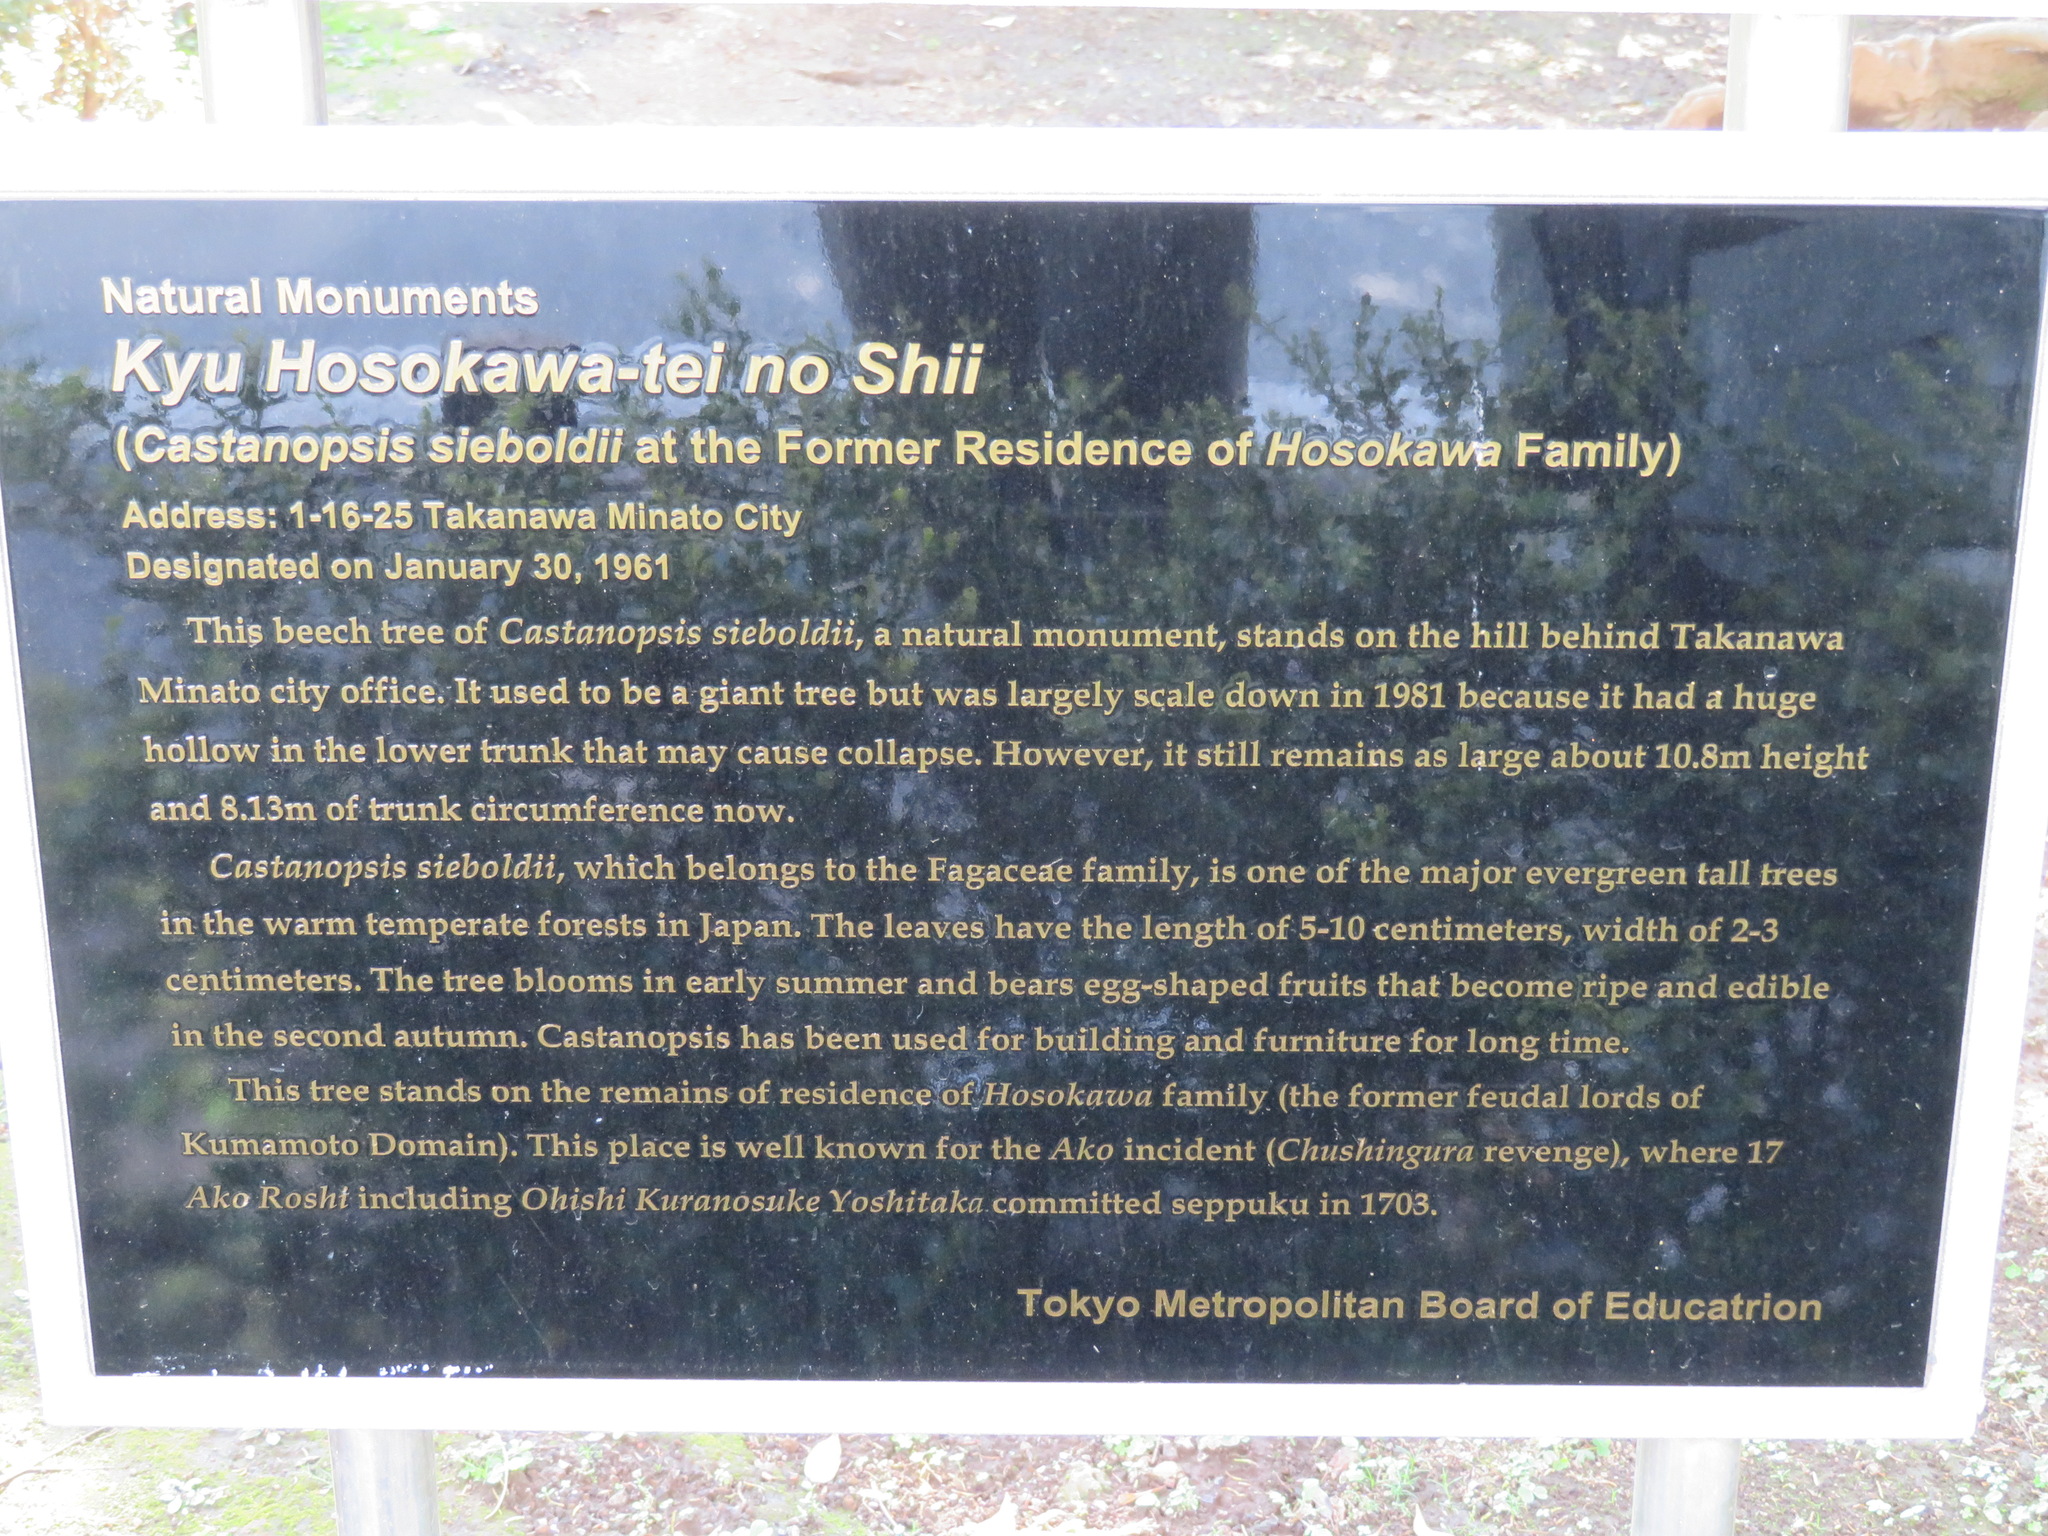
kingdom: Plantae
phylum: Tracheophyta
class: Magnoliopsida
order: Fagales
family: Fagaceae
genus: Castanopsis
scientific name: Castanopsis sieboldii
